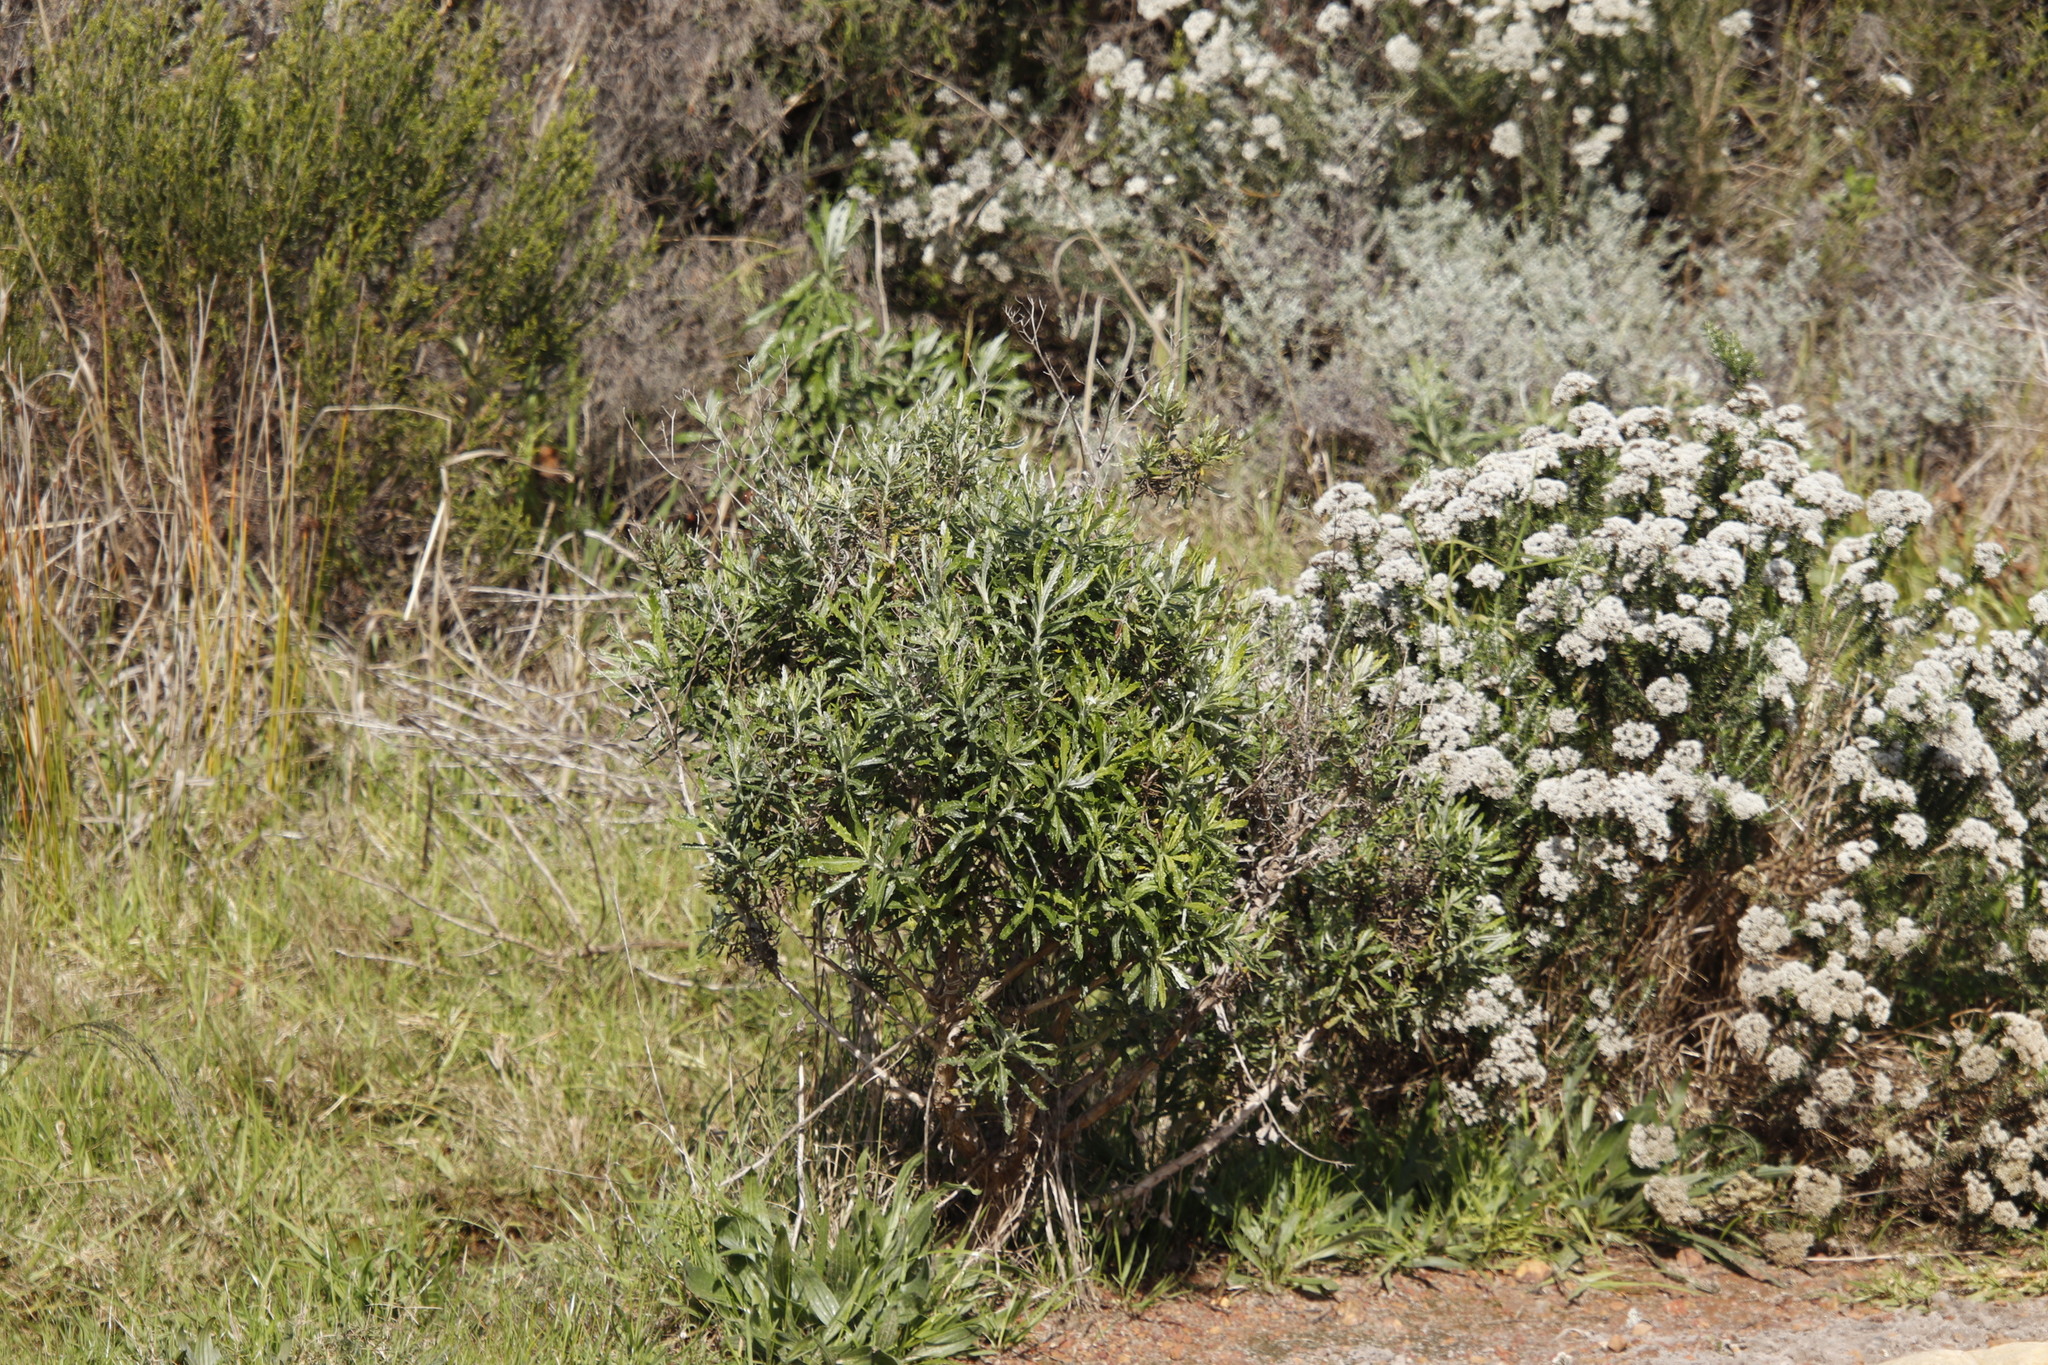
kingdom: Plantae
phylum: Tracheophyta
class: Magnoliopsida
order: Asterales
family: Asteraceae
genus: Senecio
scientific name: Senecio pterophorus
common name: Shoddy ragwort
